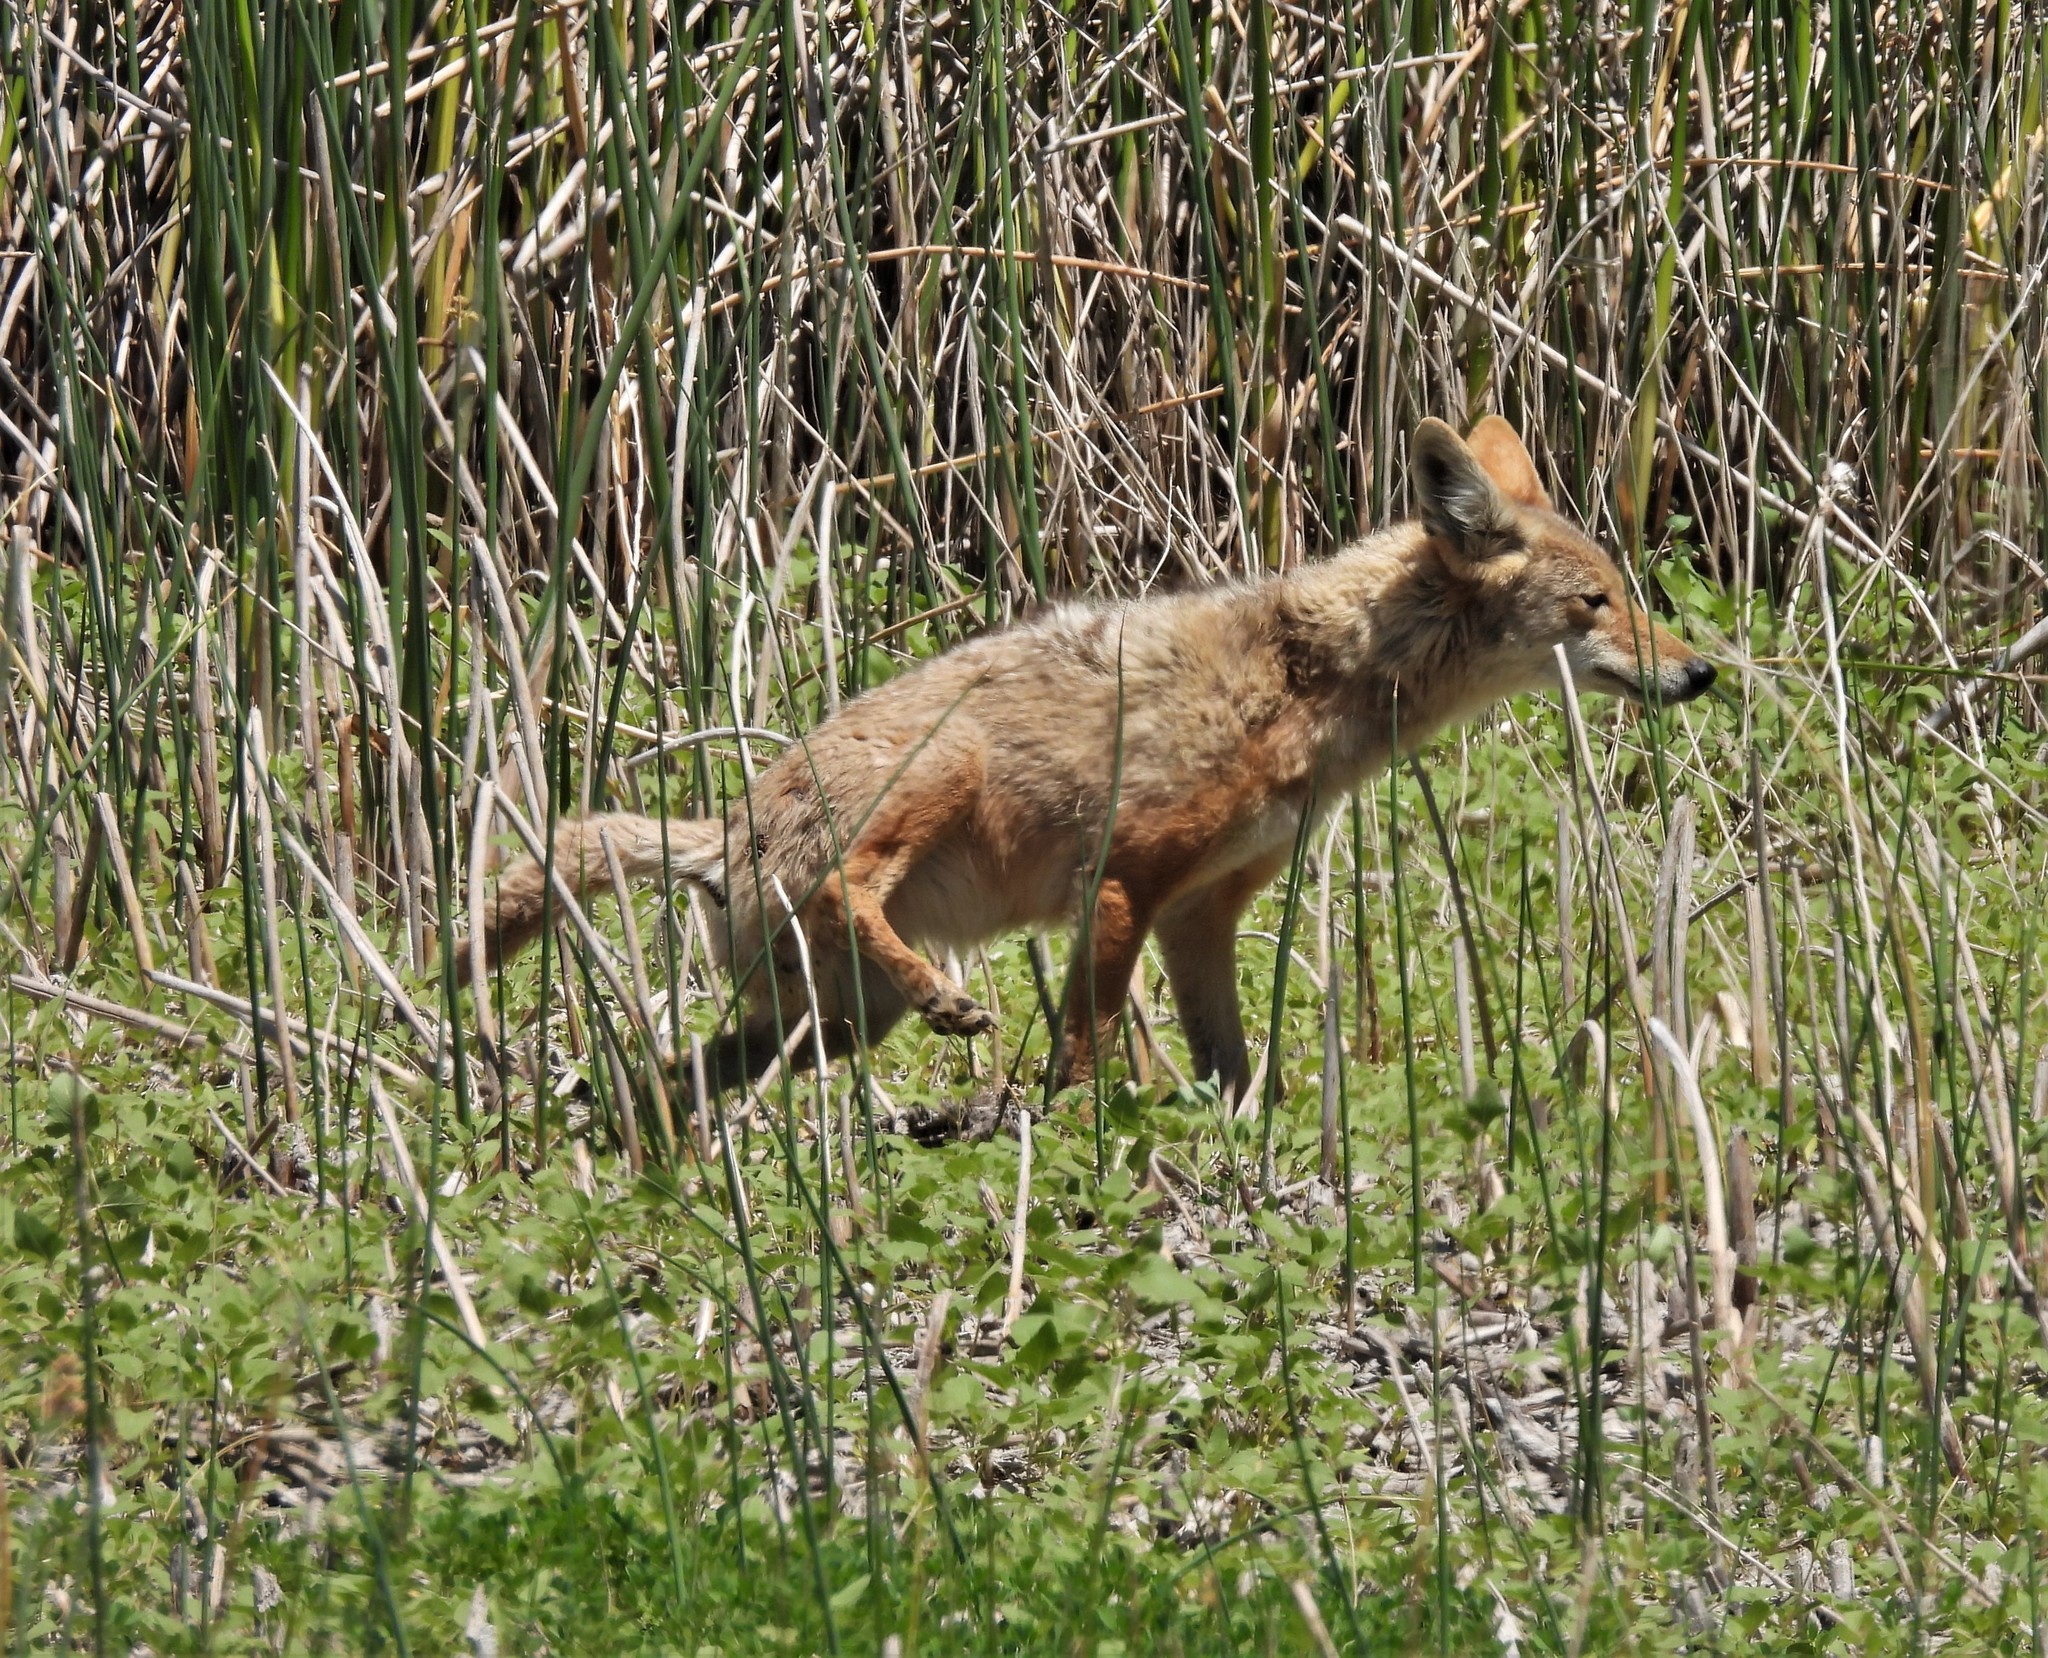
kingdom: Animalia
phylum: Chordata
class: Mammalia
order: Carnivora
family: Canidae
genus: Canis
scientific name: Canis latrans
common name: Coyote
